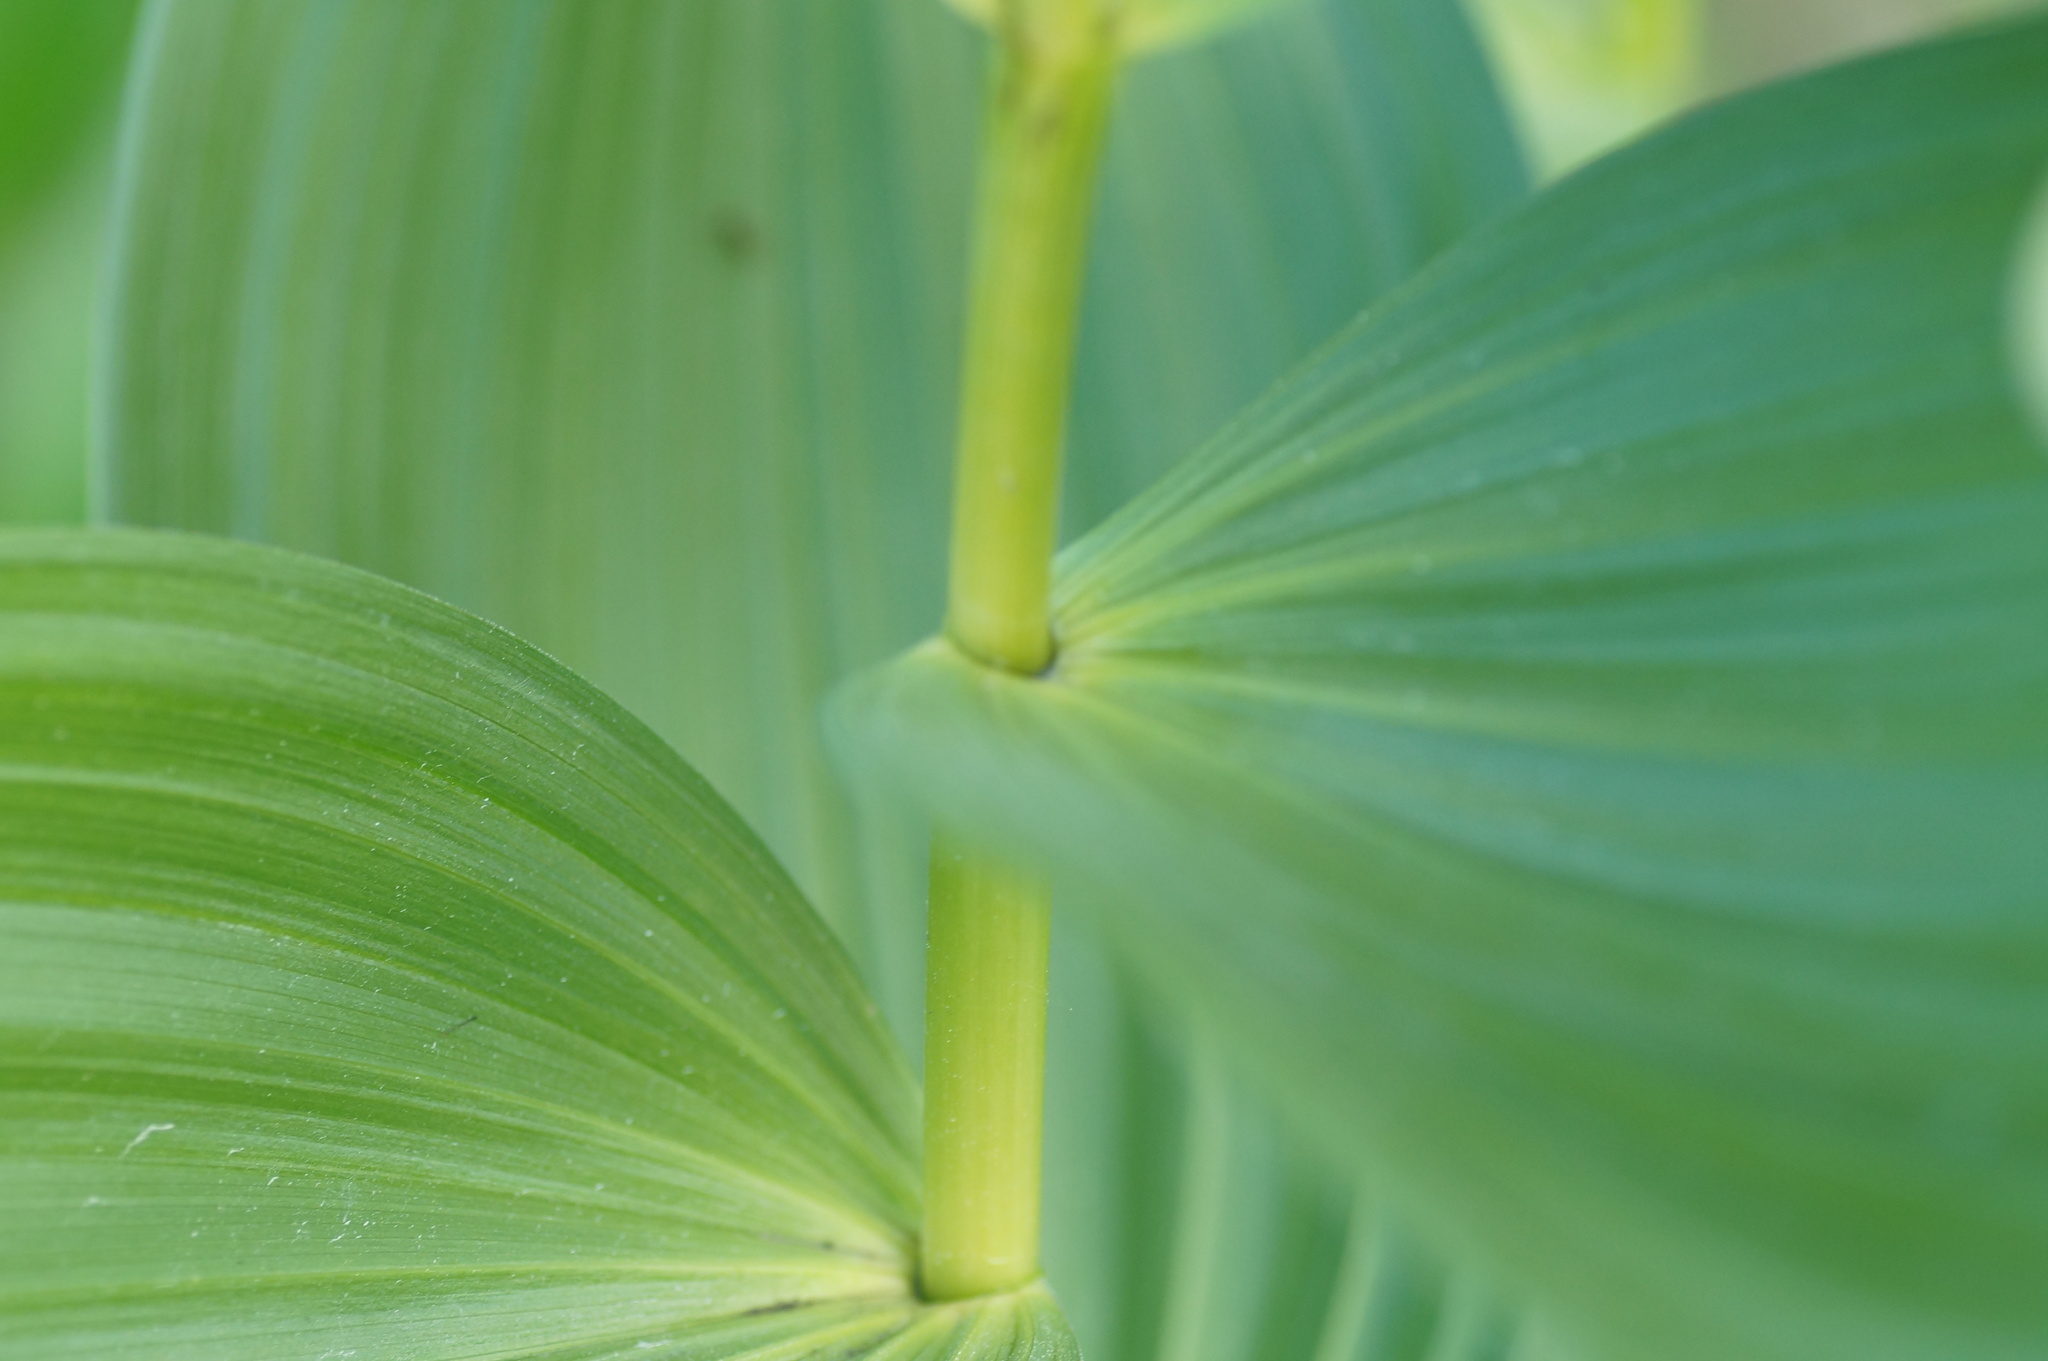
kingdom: Plantae
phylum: Tracheophyta
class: Liliopsida
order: Liliales
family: Melanthiaceae
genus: Veratrum
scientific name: Veratrum lobelianum
